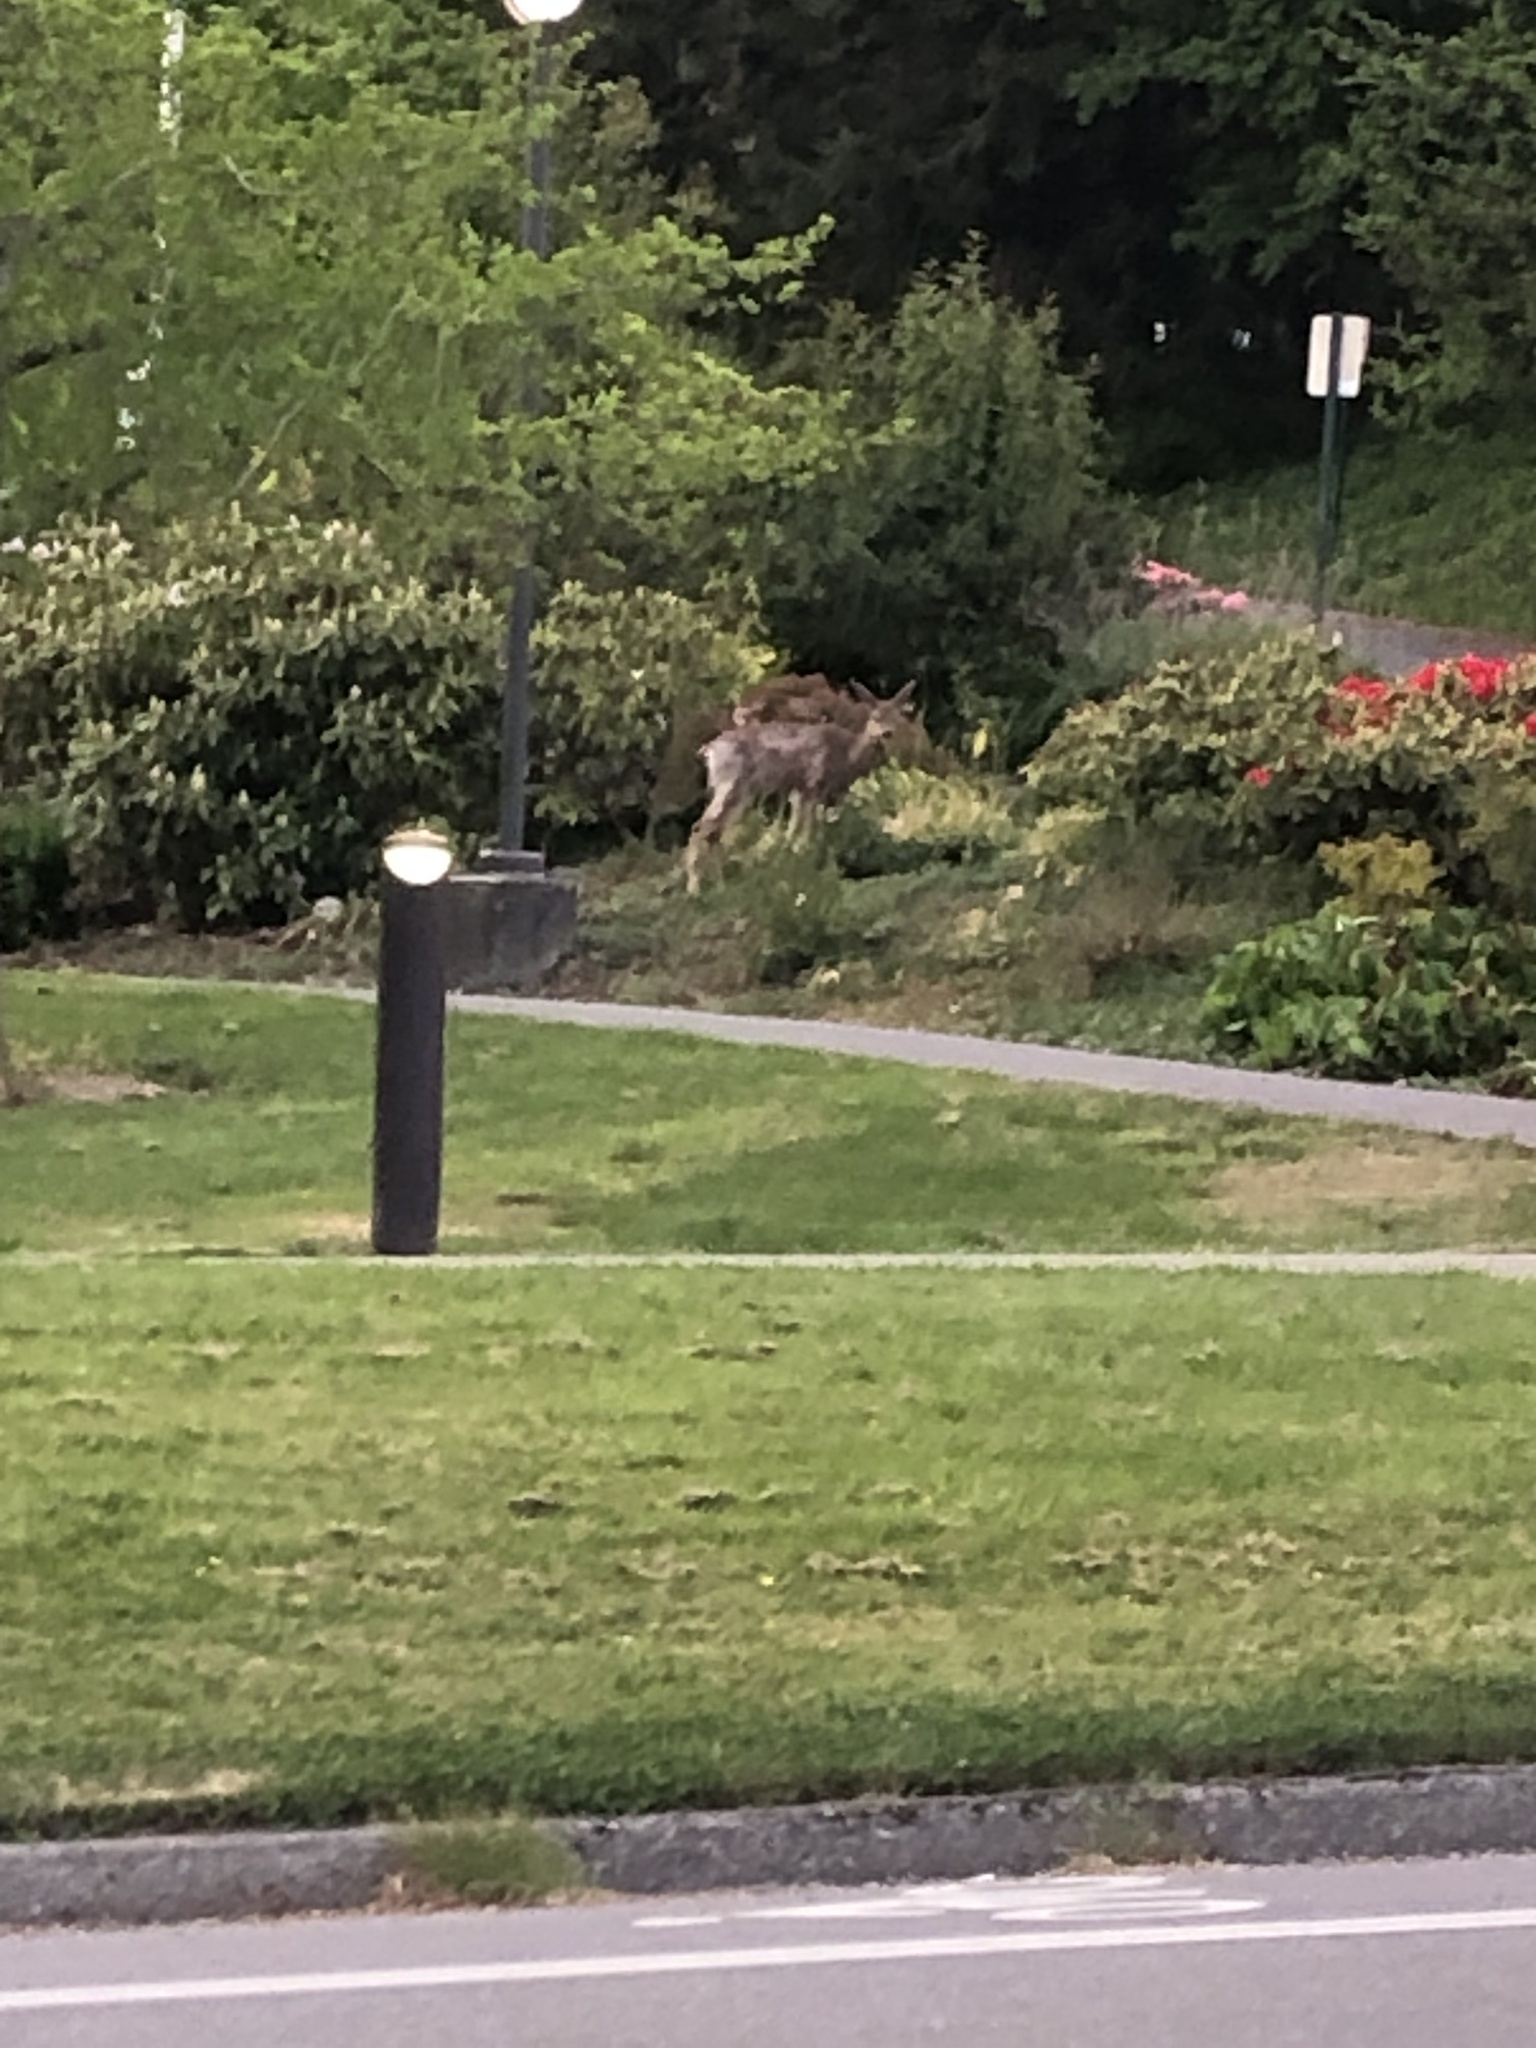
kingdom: Animalia
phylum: Chordata
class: Mammalia
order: Artiodactyla
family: Cervidae
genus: Odocoileus
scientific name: Odocoileus hemionus
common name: Mule deer
